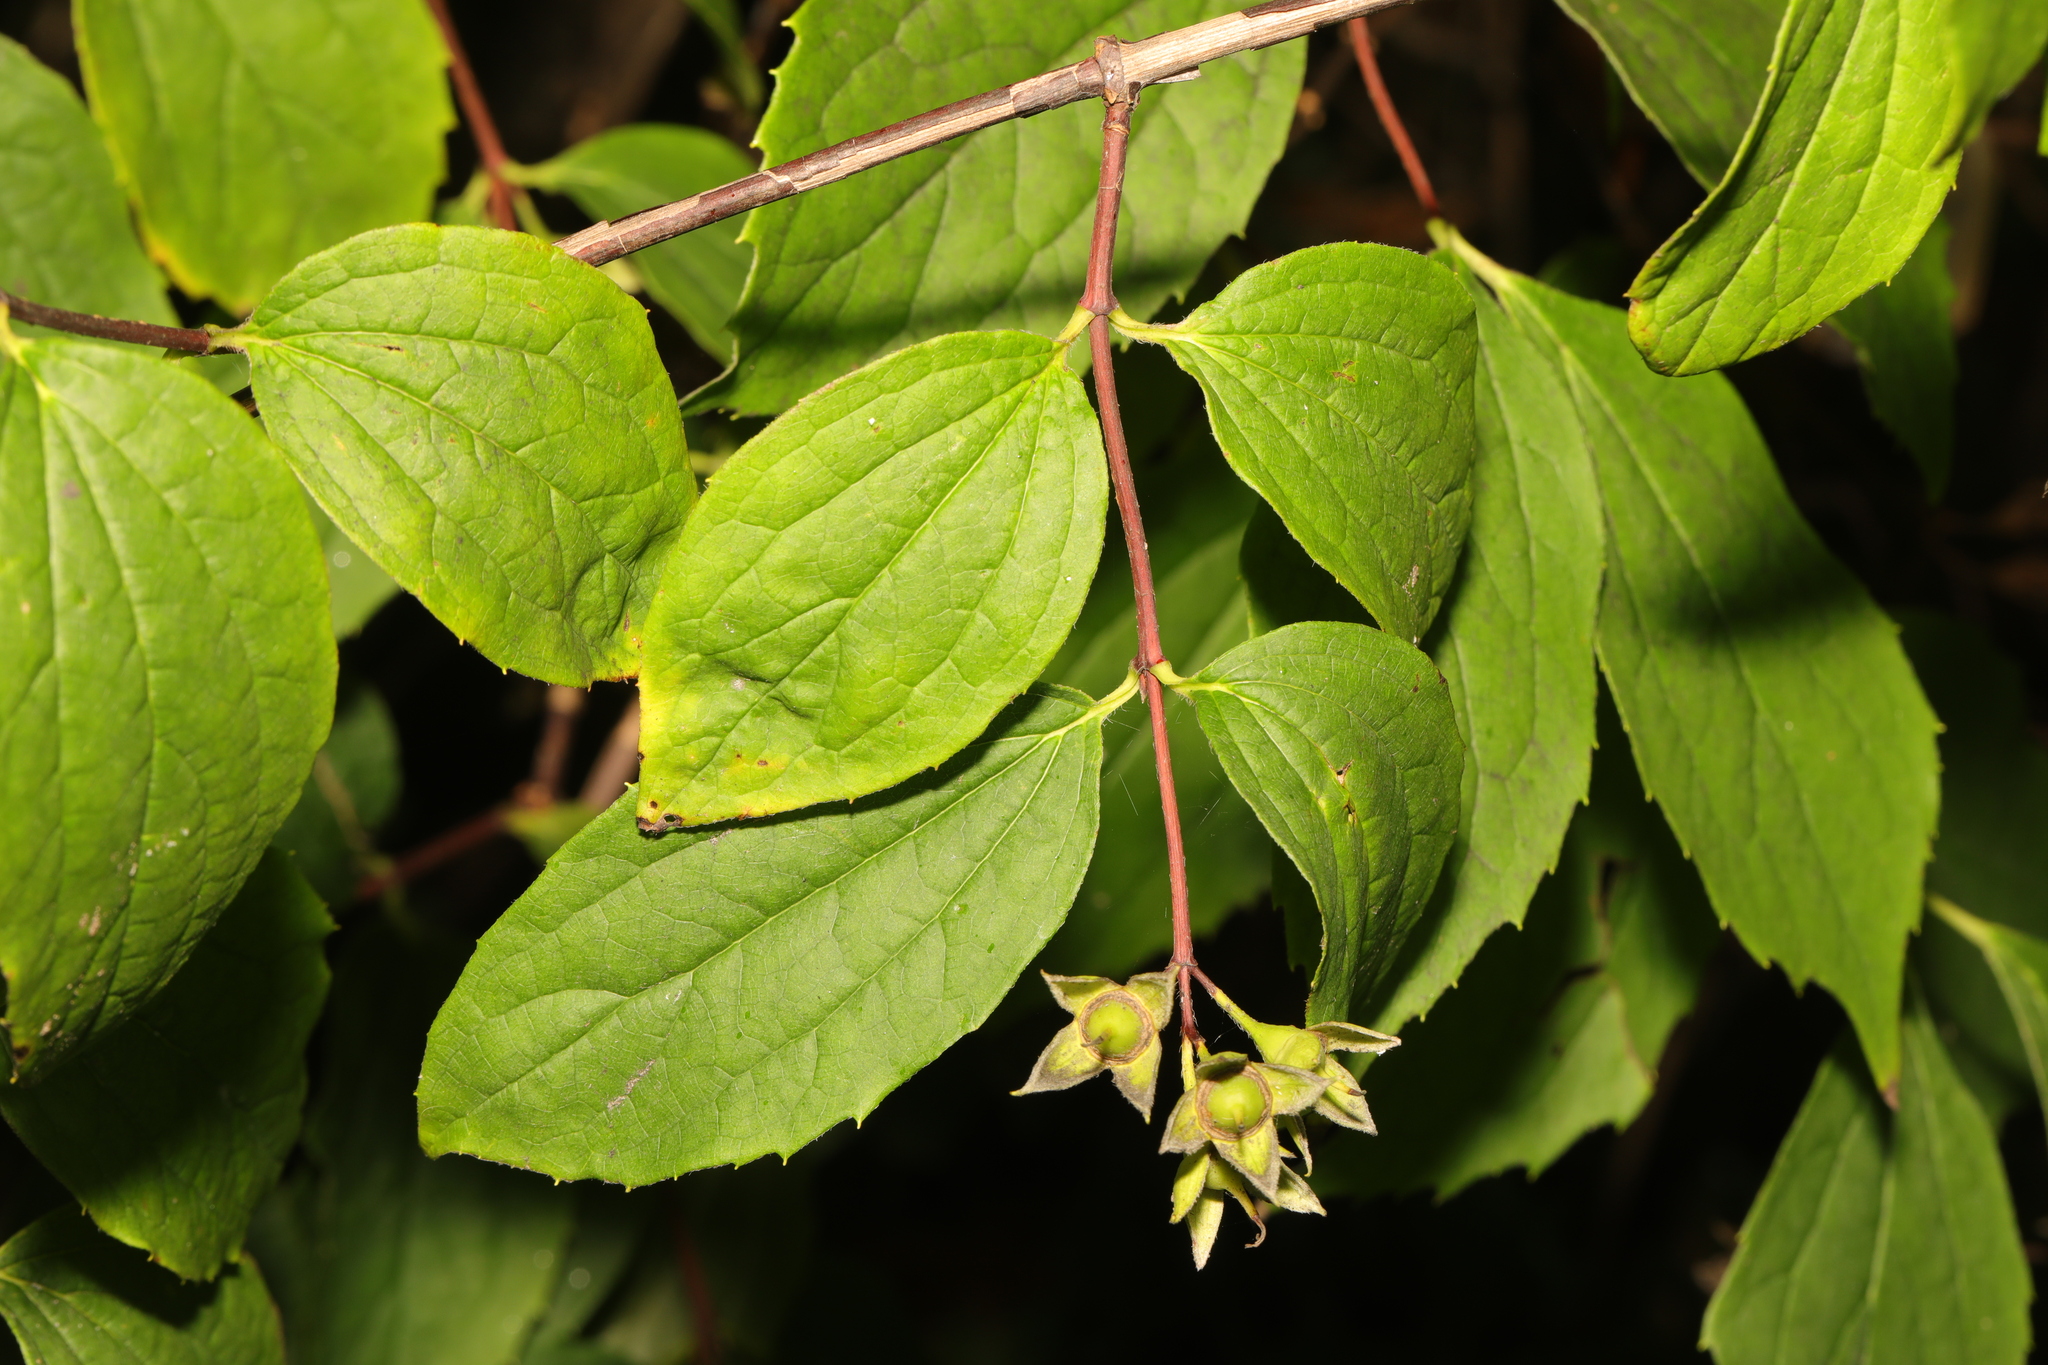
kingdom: Plantae
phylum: Tracheophyta
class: Magnoliopsida
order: Cornales
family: Hydrangeaceae
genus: Philadelphus
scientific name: Philadelphus coronarius
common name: Mock orange
